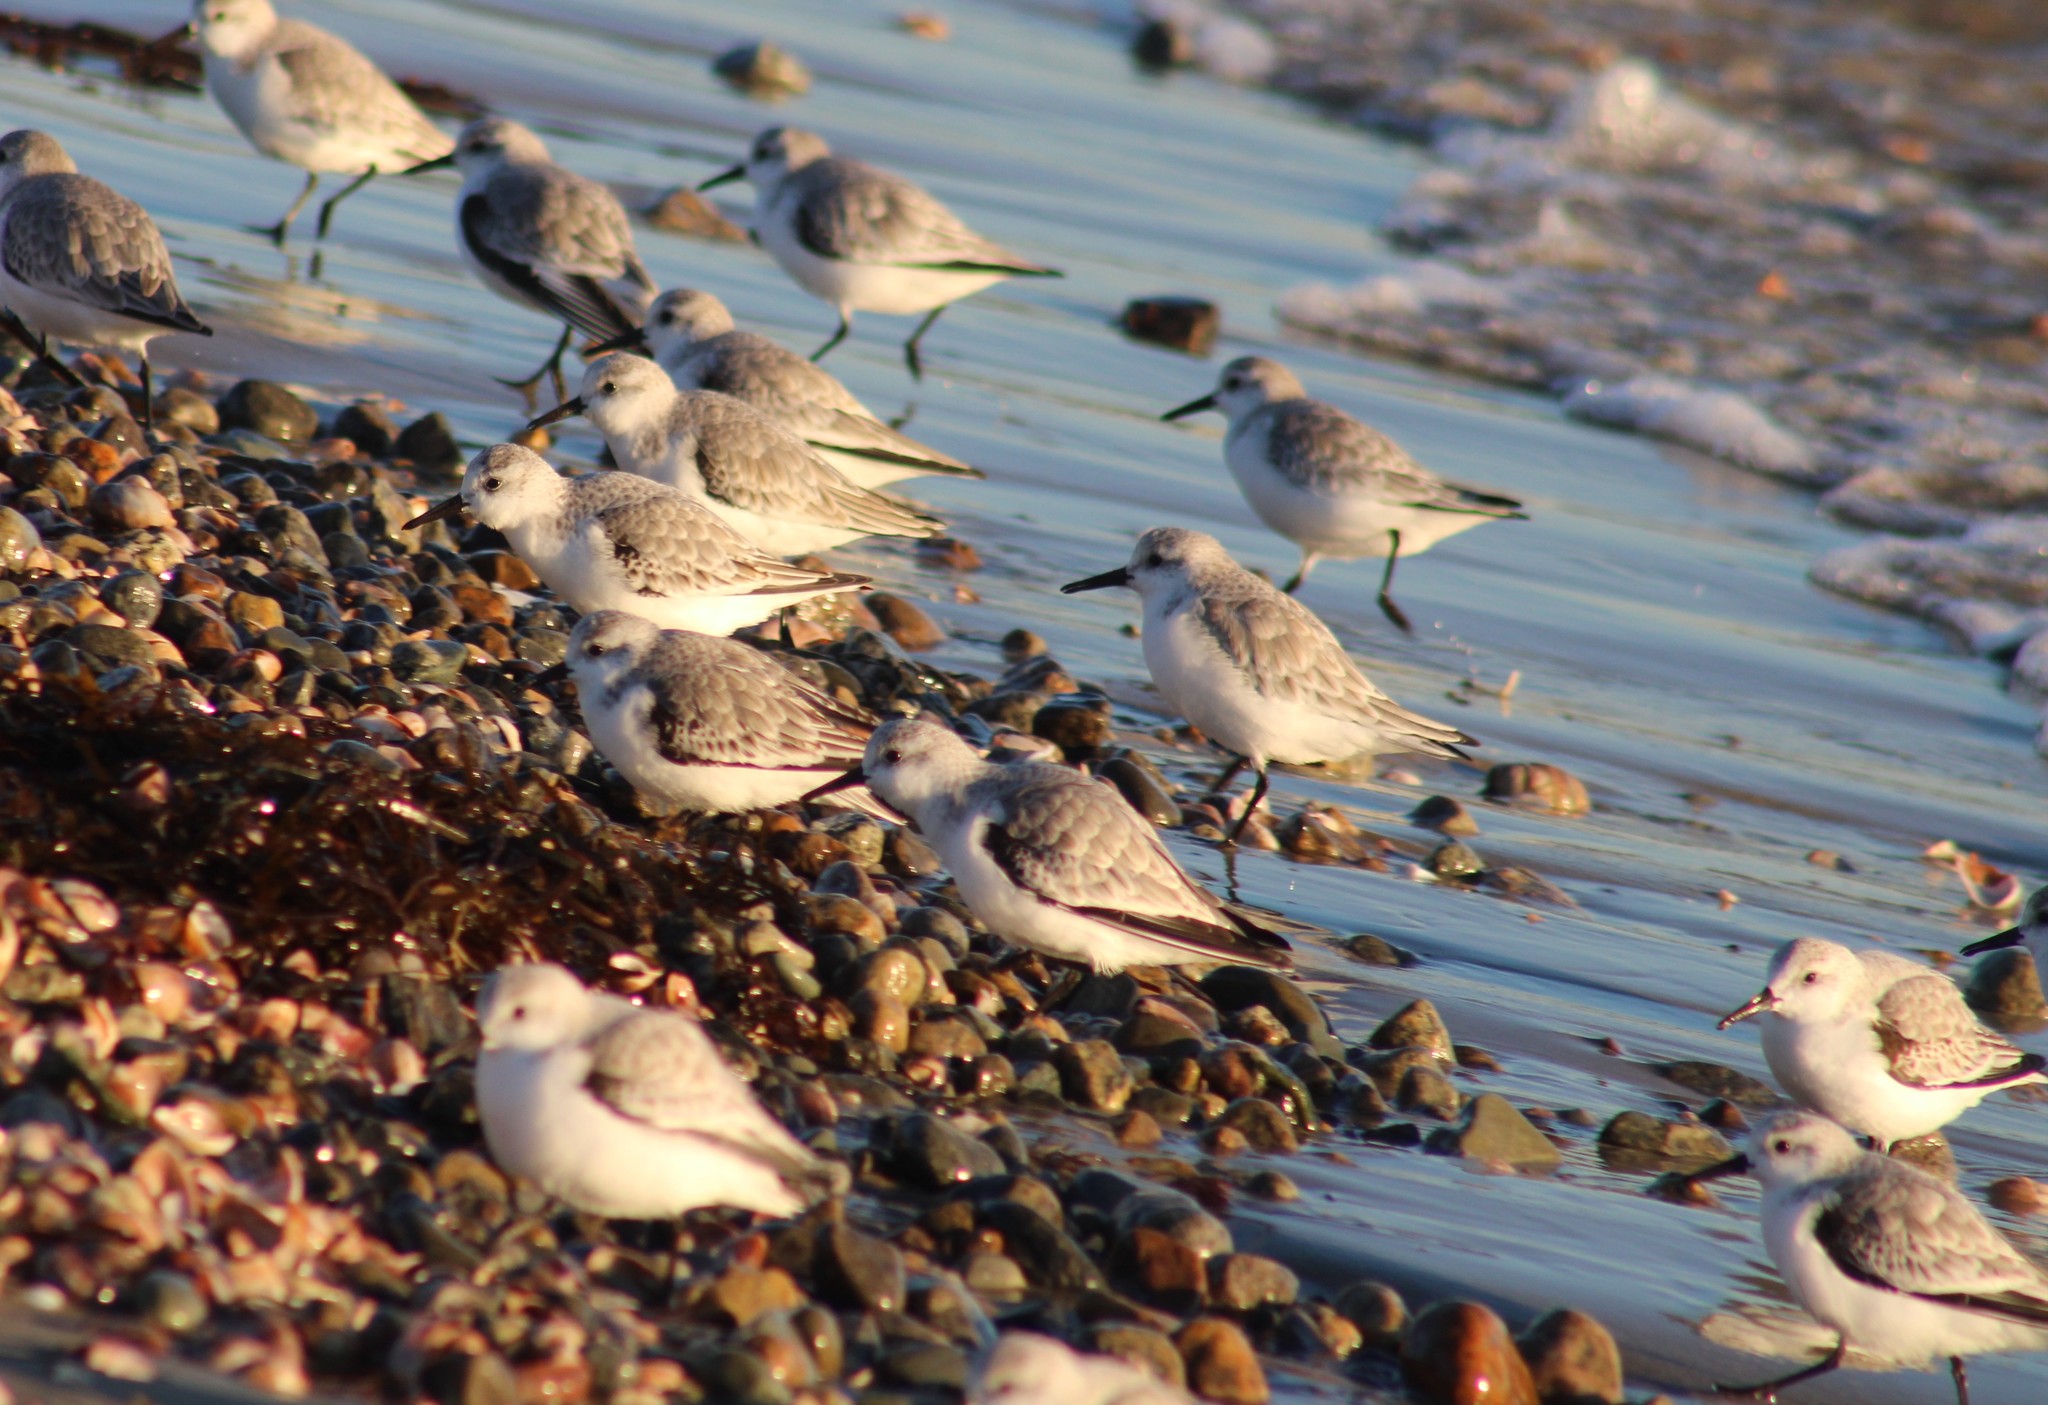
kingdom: Animalia
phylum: Chordata
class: Aves
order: Charadriiformes
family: Scolopacidae
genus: Calidris
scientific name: Calidris alba
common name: Sanderling
